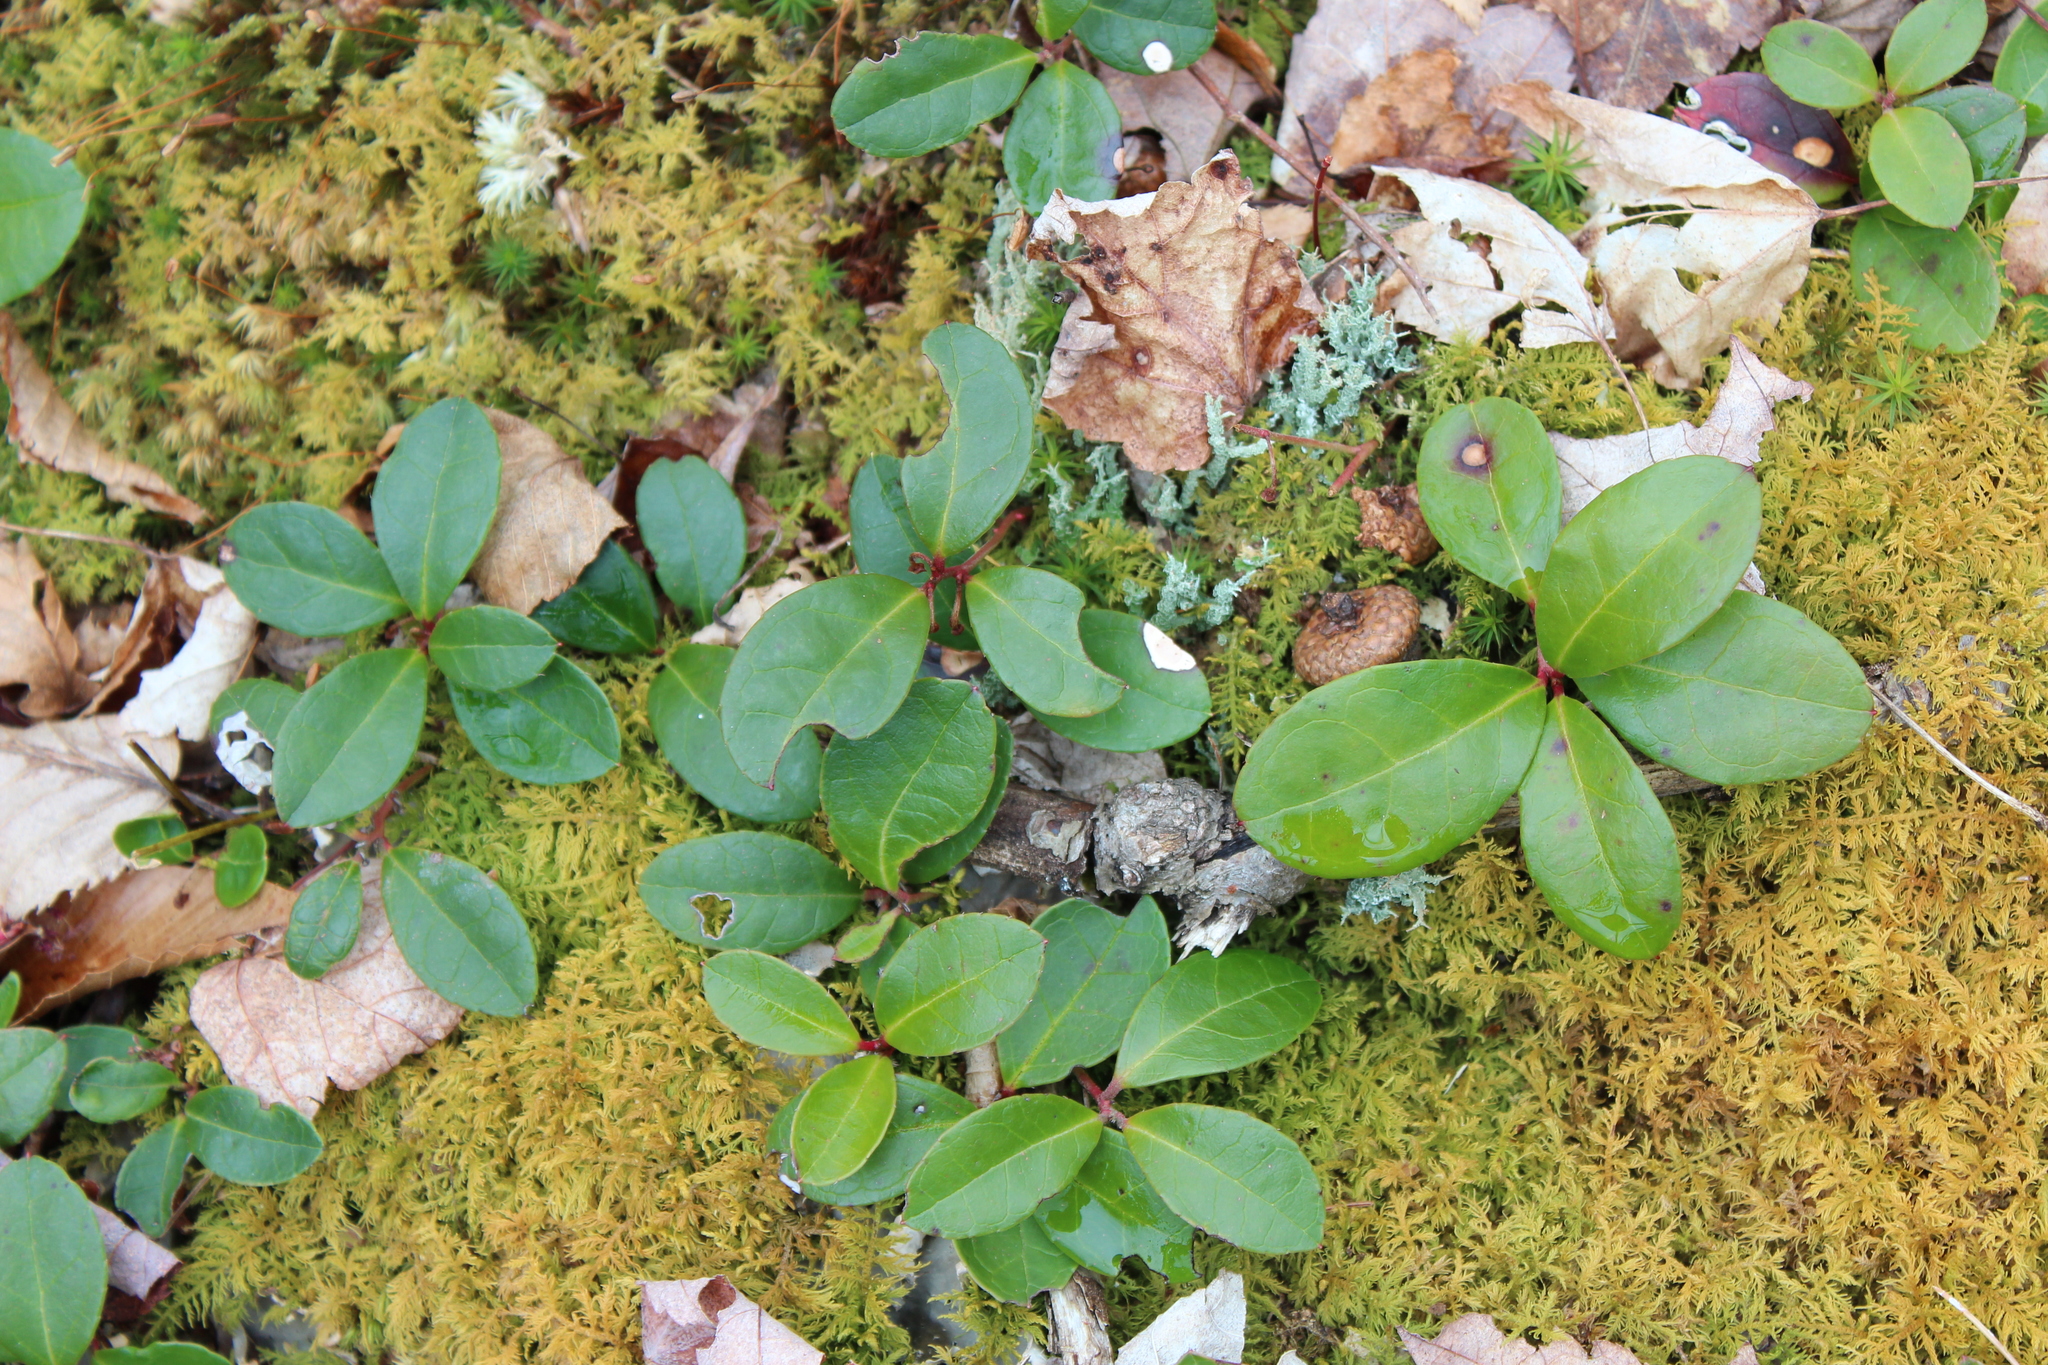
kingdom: Plantae
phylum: Tracheophyta
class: Magnoliopsida
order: Ericales
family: Ericaceae
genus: Gaultheria
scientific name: Gaultheria procumbens
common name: Checkerberry
